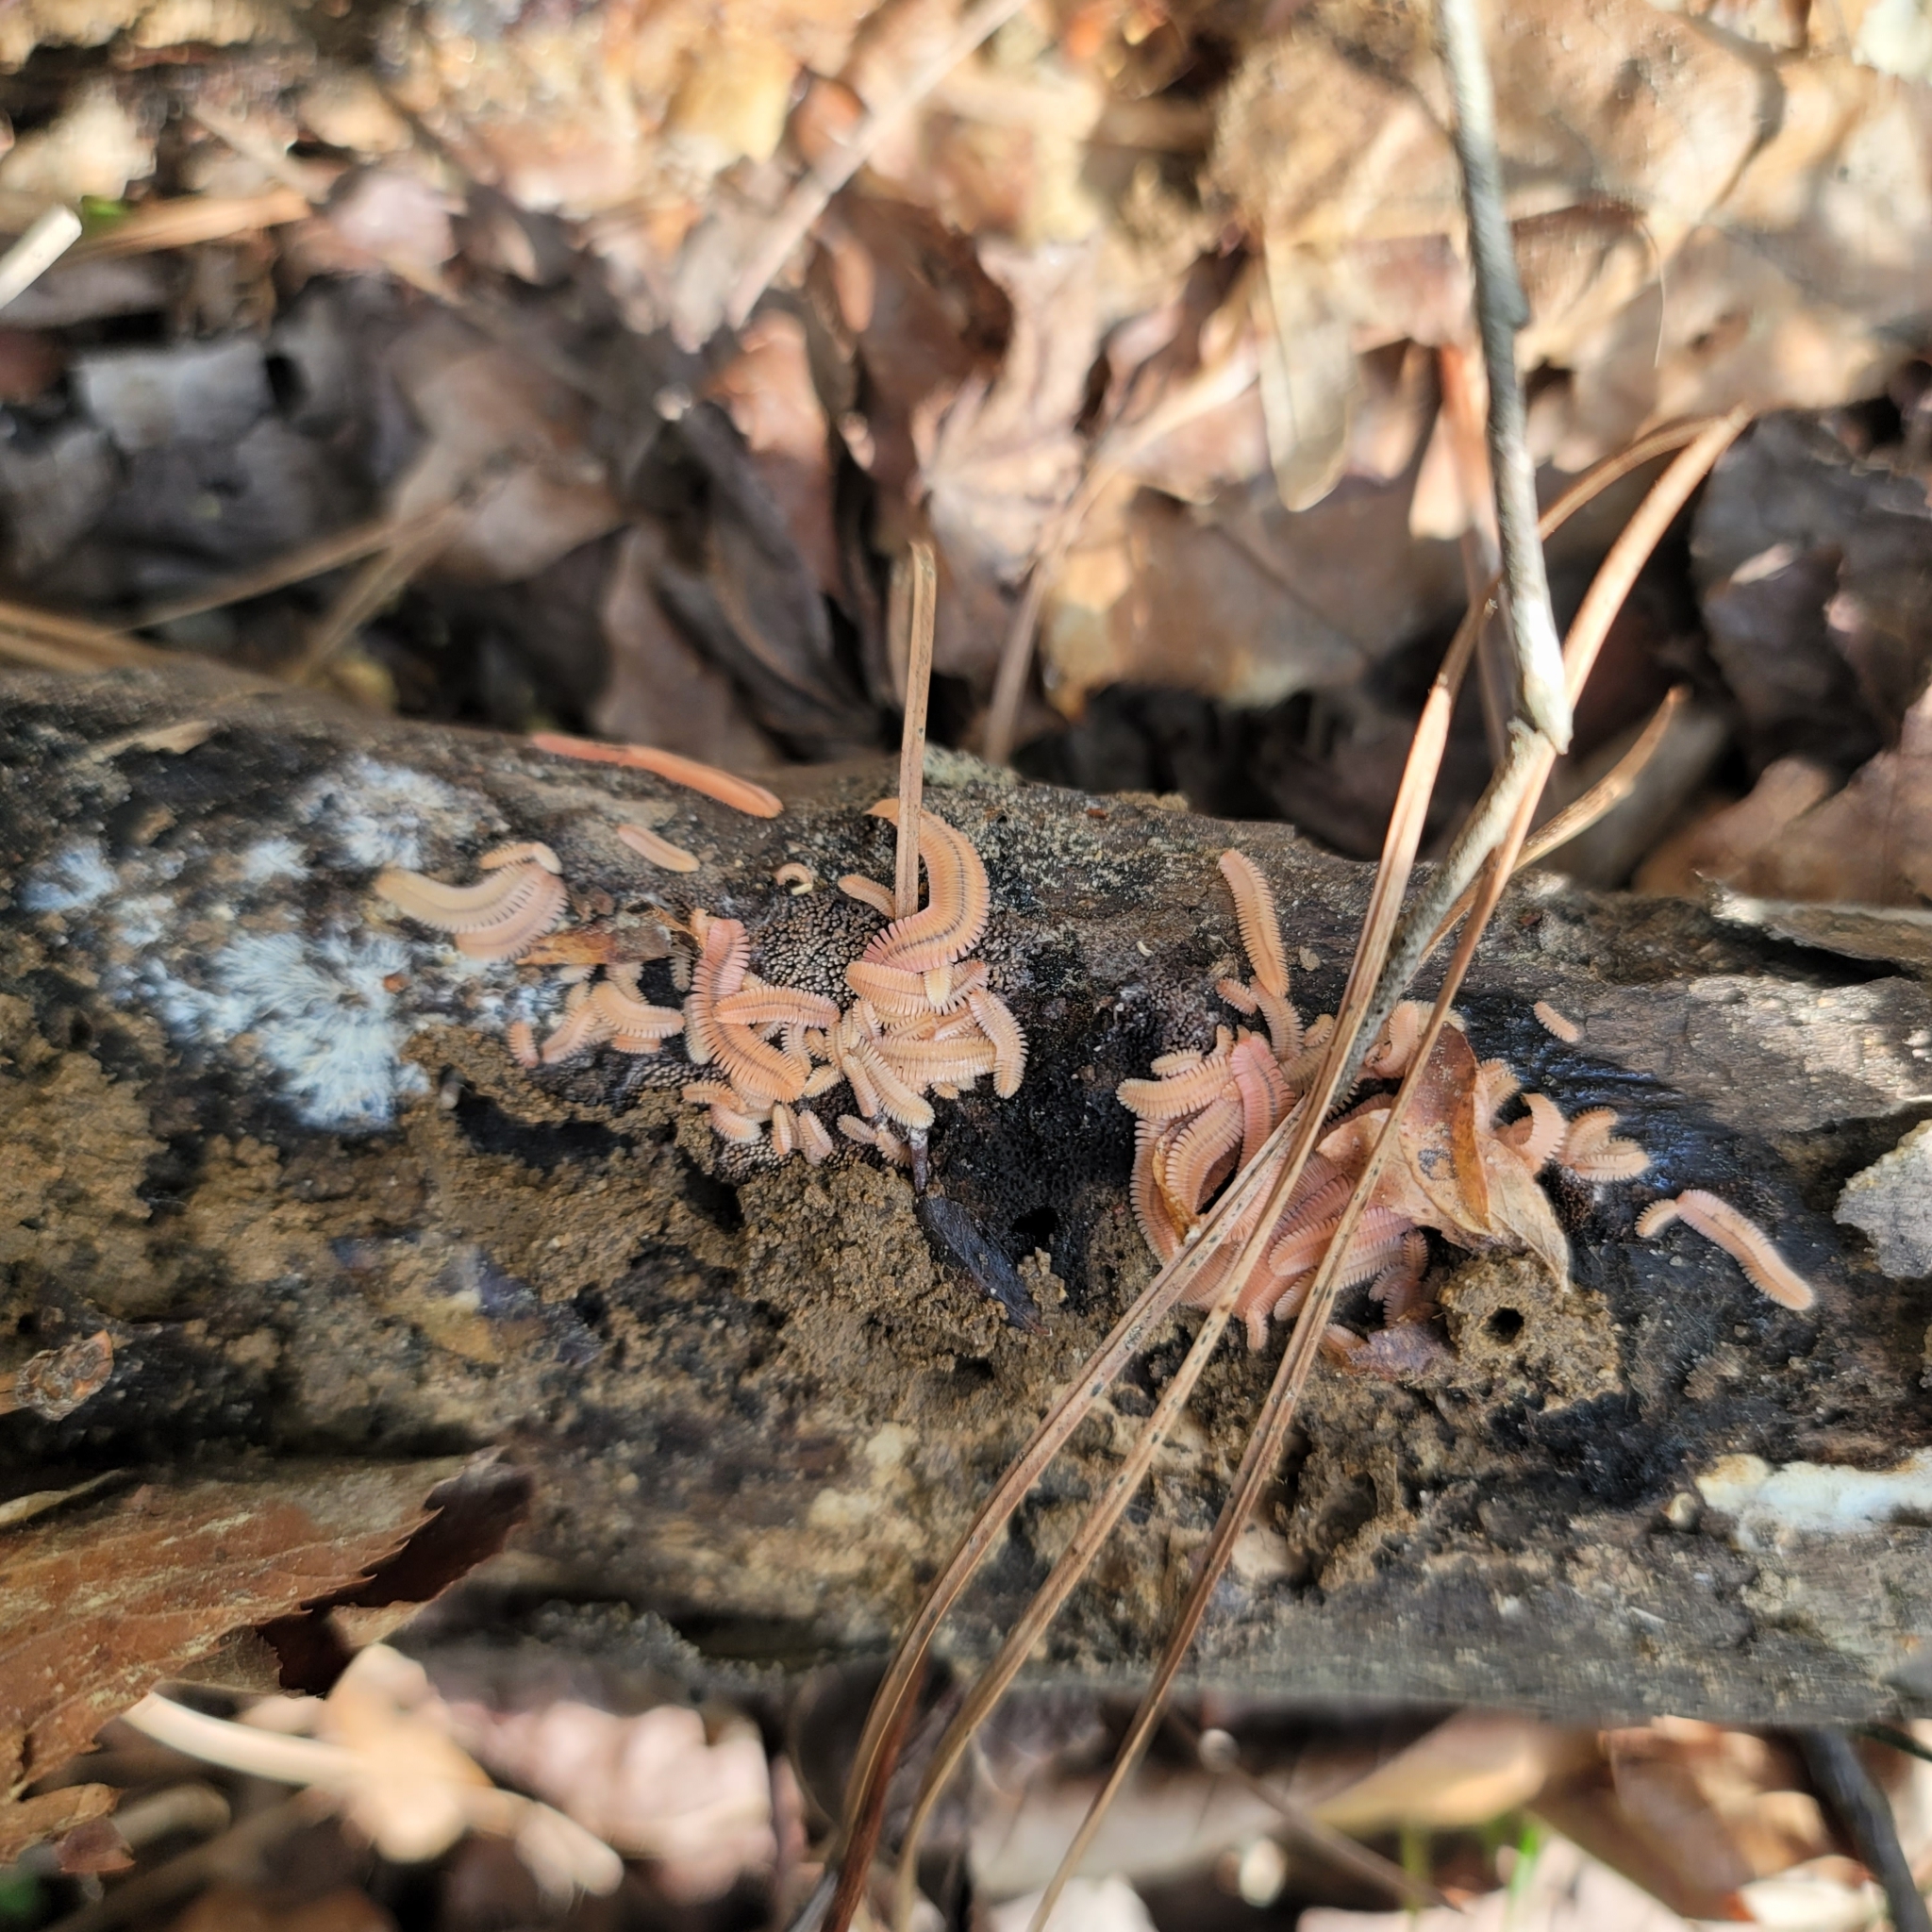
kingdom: Animalia
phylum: Arthropoda
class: Diplopoda
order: Platydesmida
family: Andrognathidae
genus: Brachycybe
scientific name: Brachycybe lecontii
